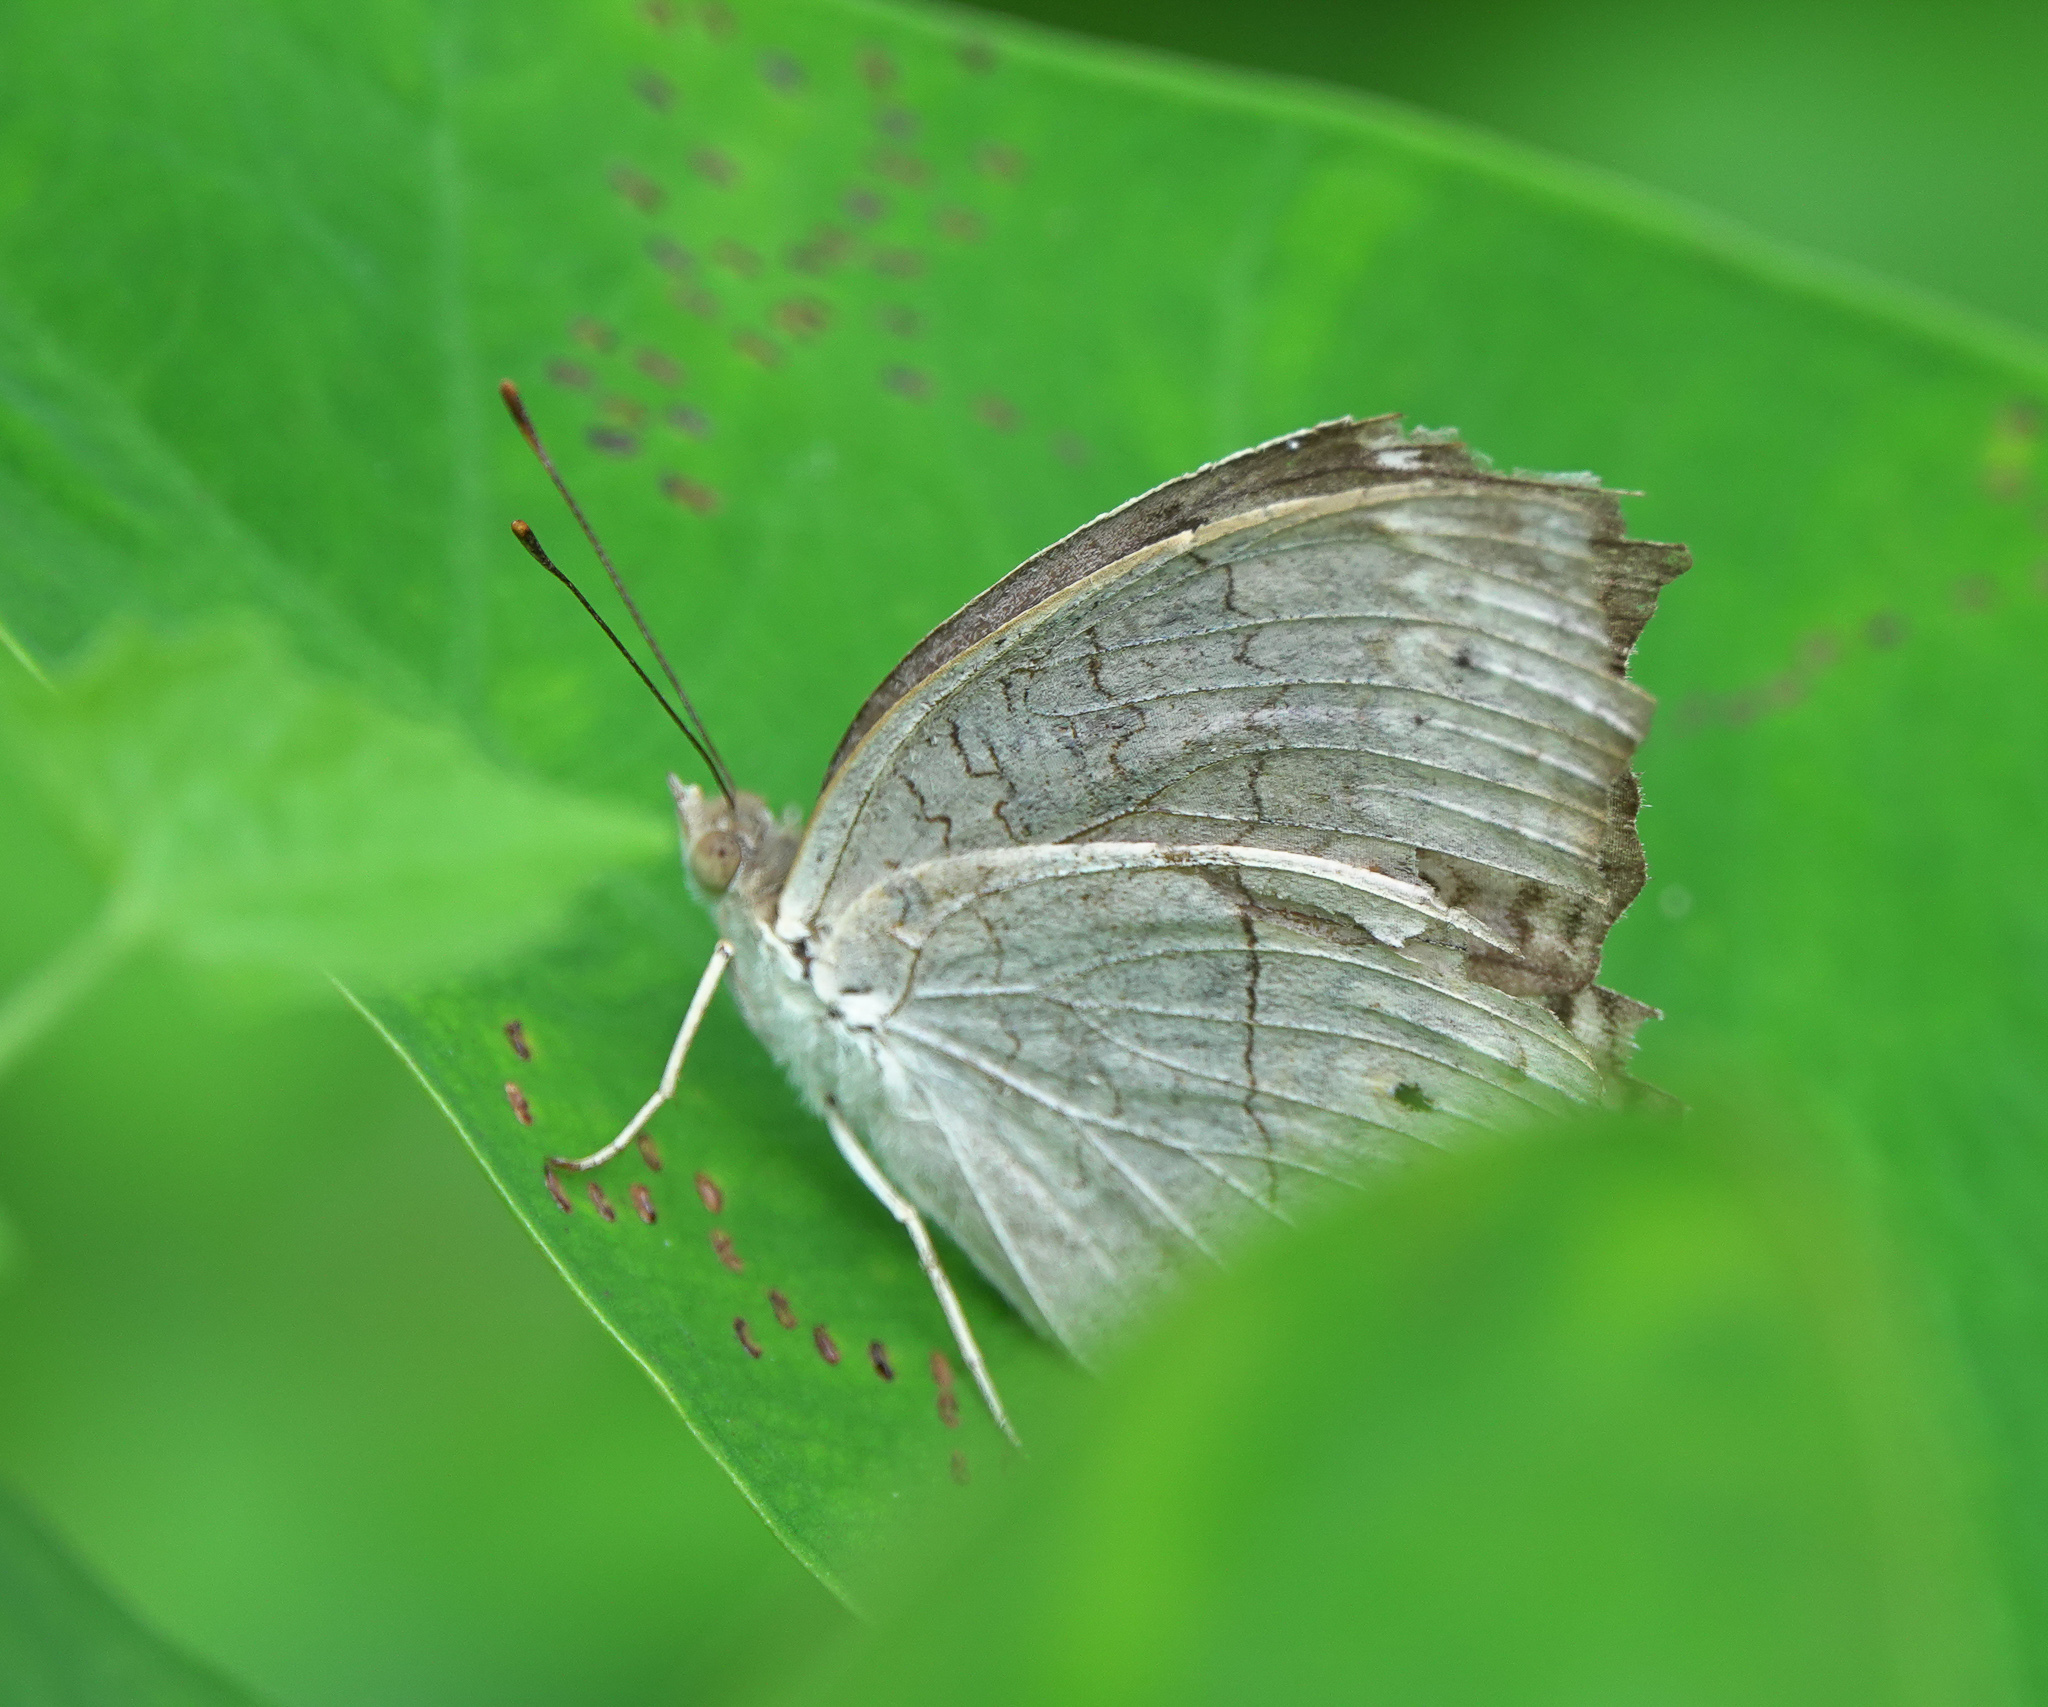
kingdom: Animalia
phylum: Arthropoda
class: Insecta
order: Lepidoptera
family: Nymphalidae
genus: Junonia
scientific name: Junonia atlites
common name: Grey pansy
